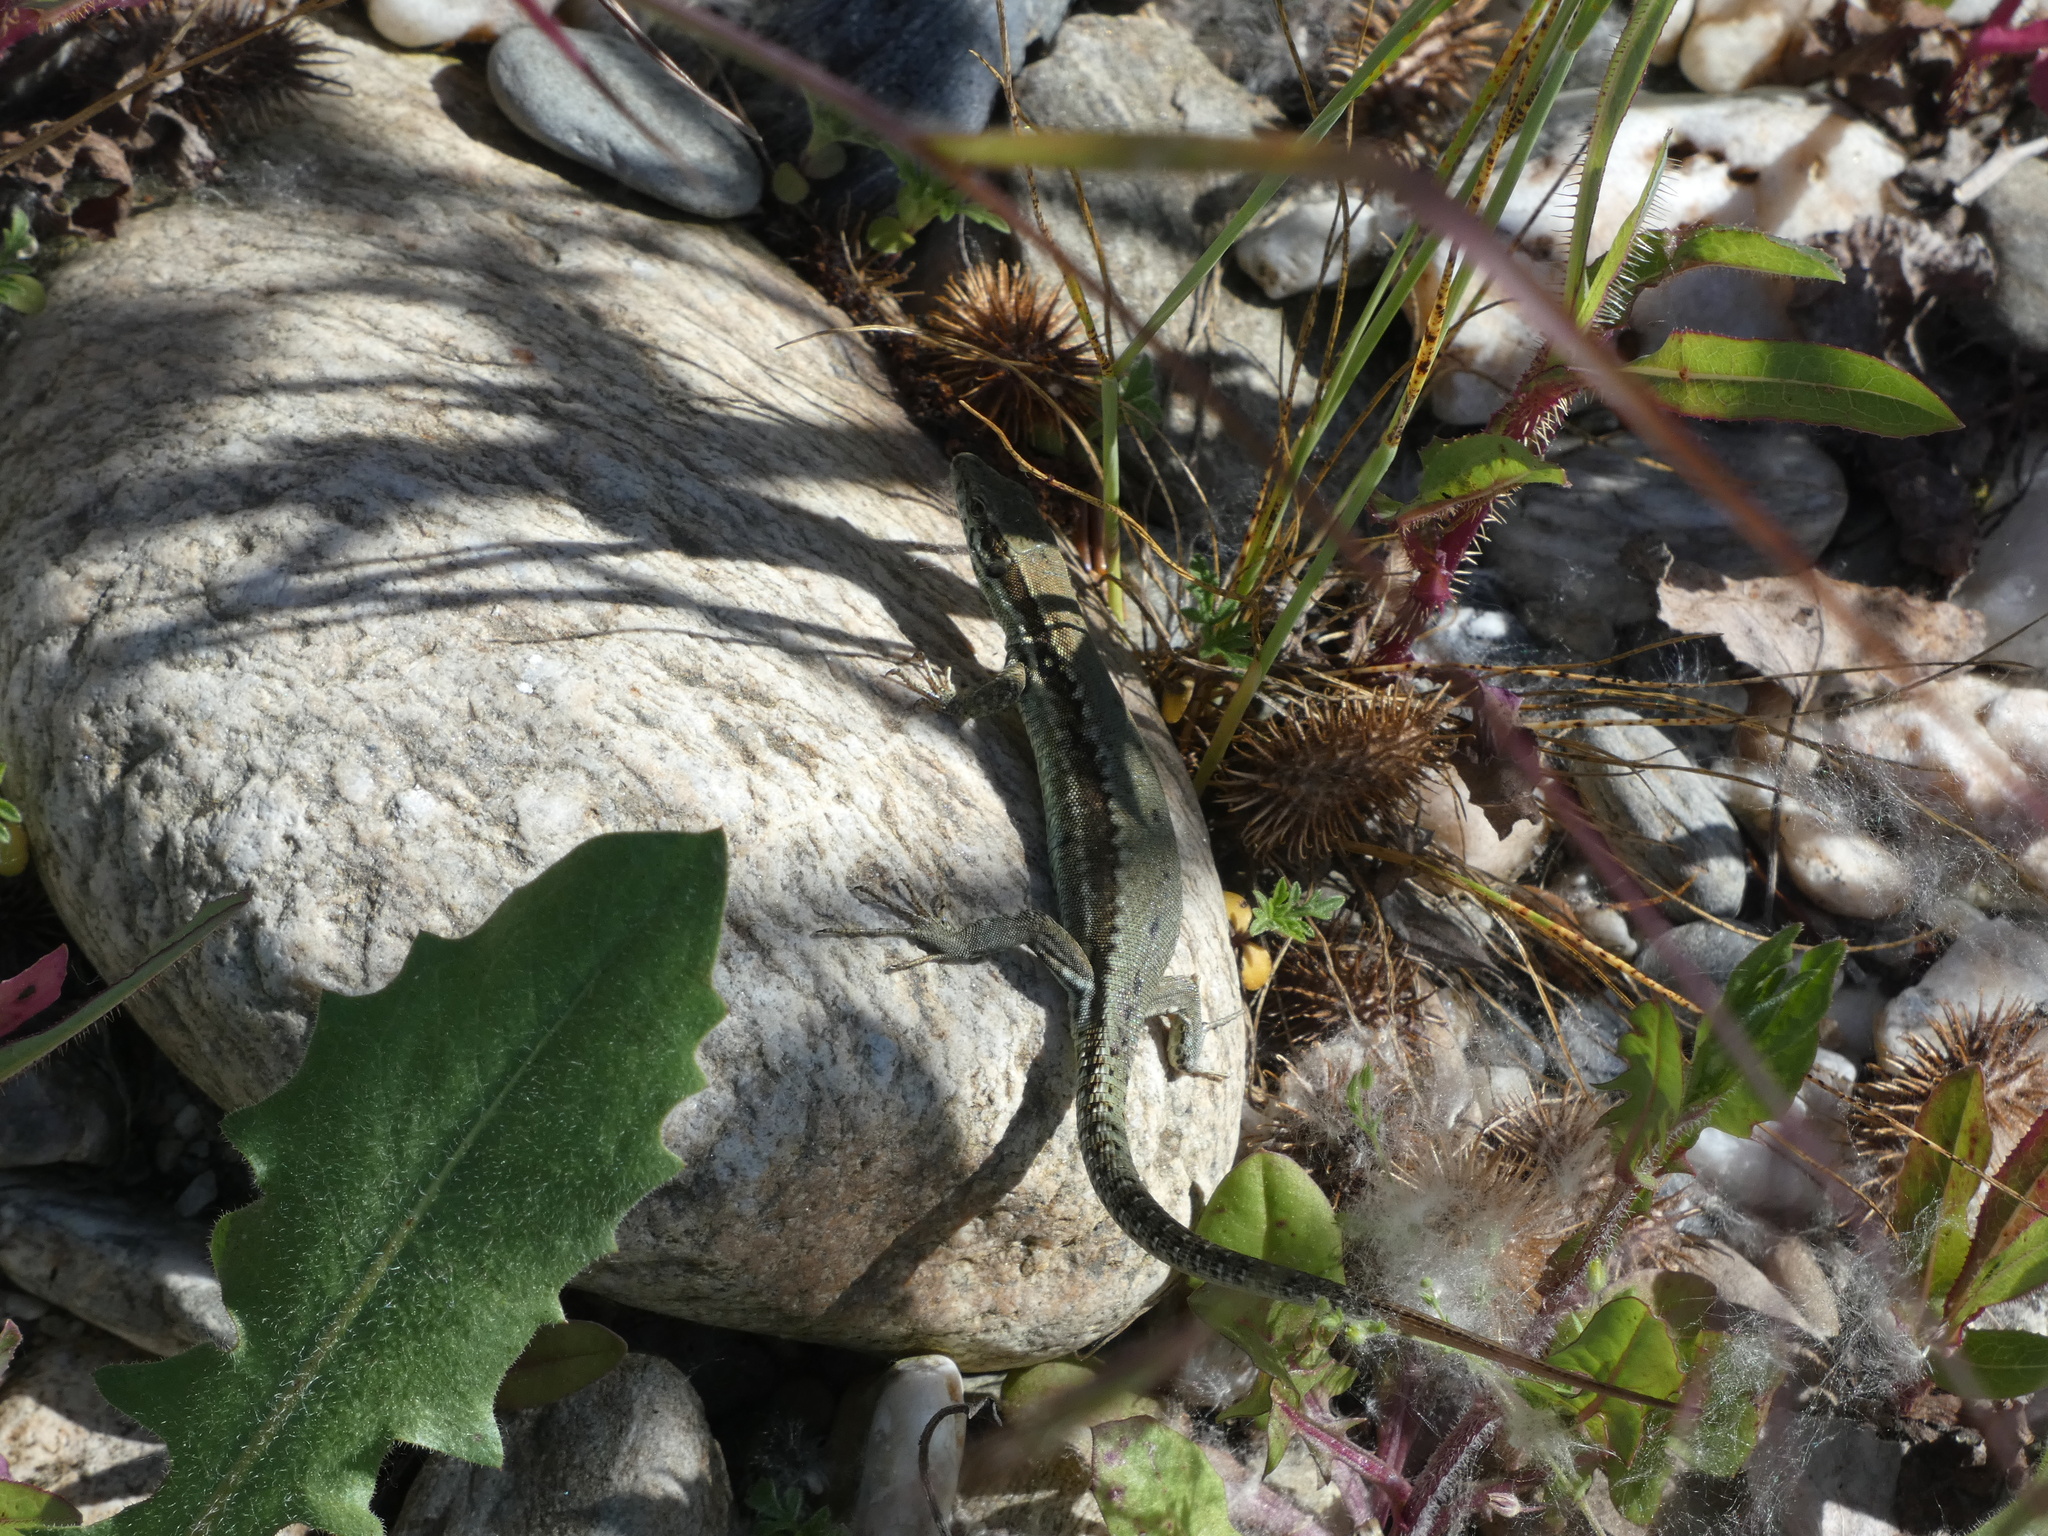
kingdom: Animalia
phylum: Chordata
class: Squamata
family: Lacertidae
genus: Podarcis
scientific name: Podarcis muralis
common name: Common wall lizard
